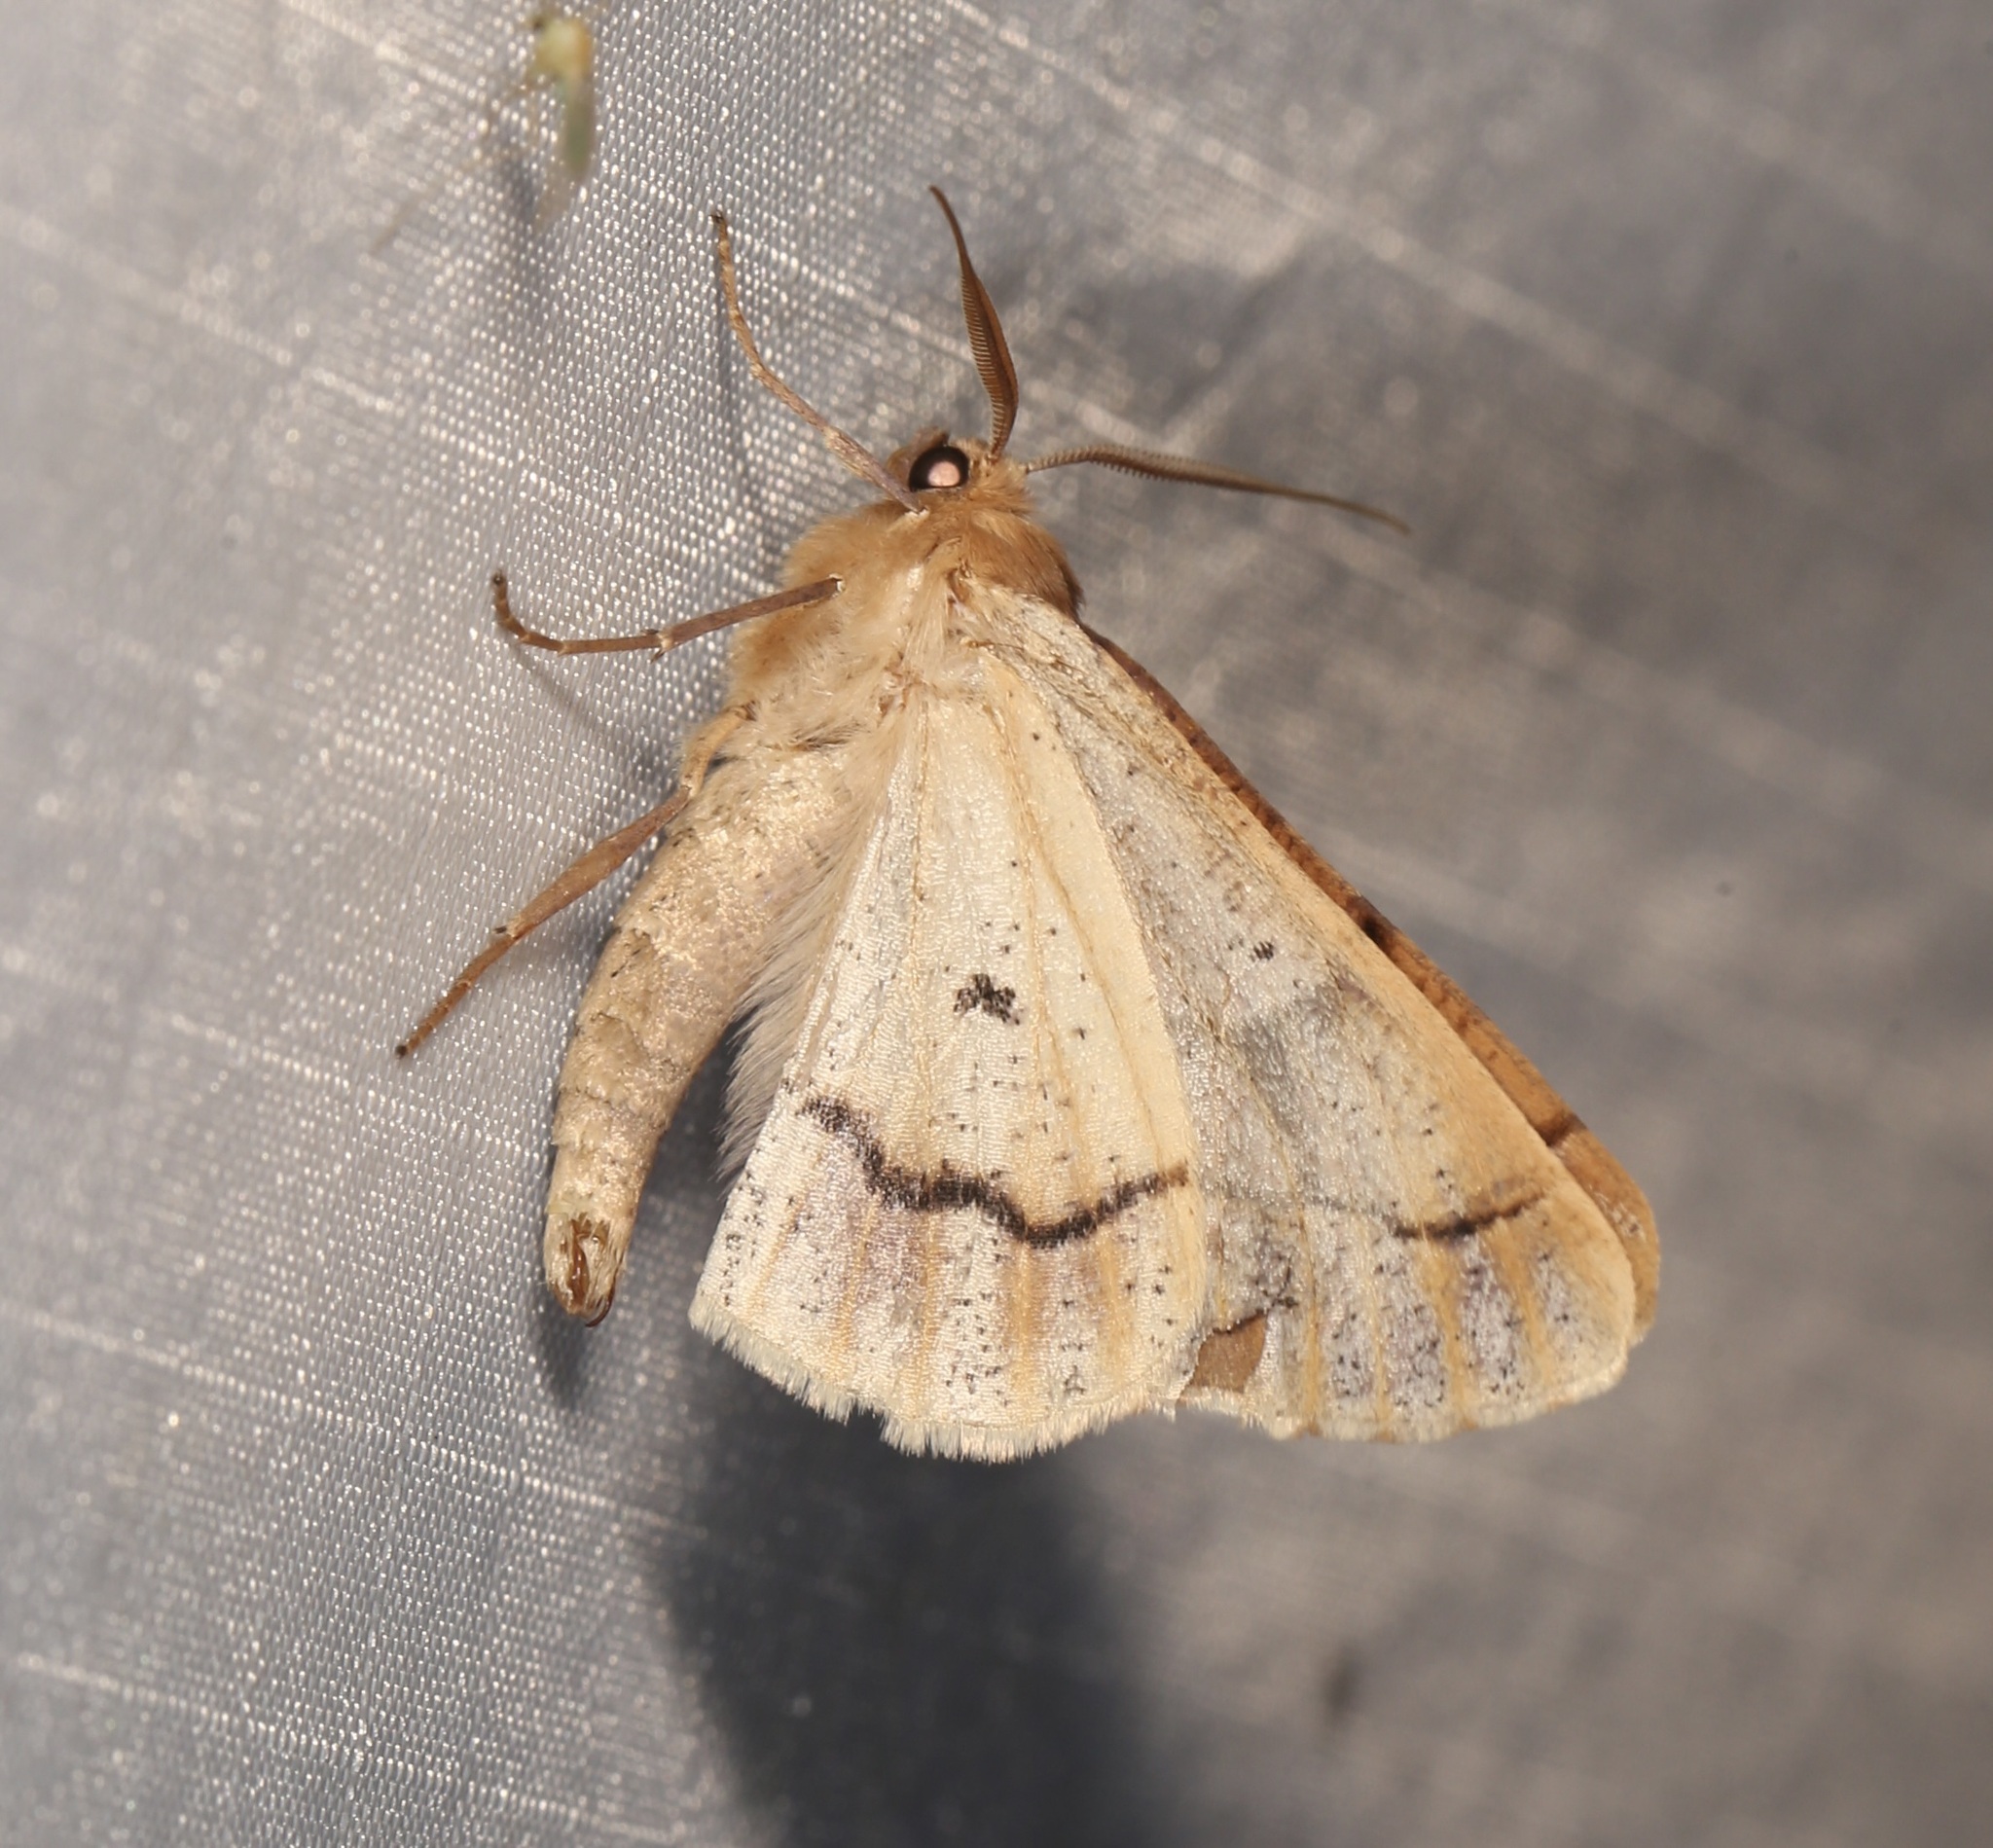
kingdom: Animalia
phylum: Arthropoda
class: Insecta
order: Lepidoptera
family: Geometridae
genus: Snowia
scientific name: Snowia montanaria
